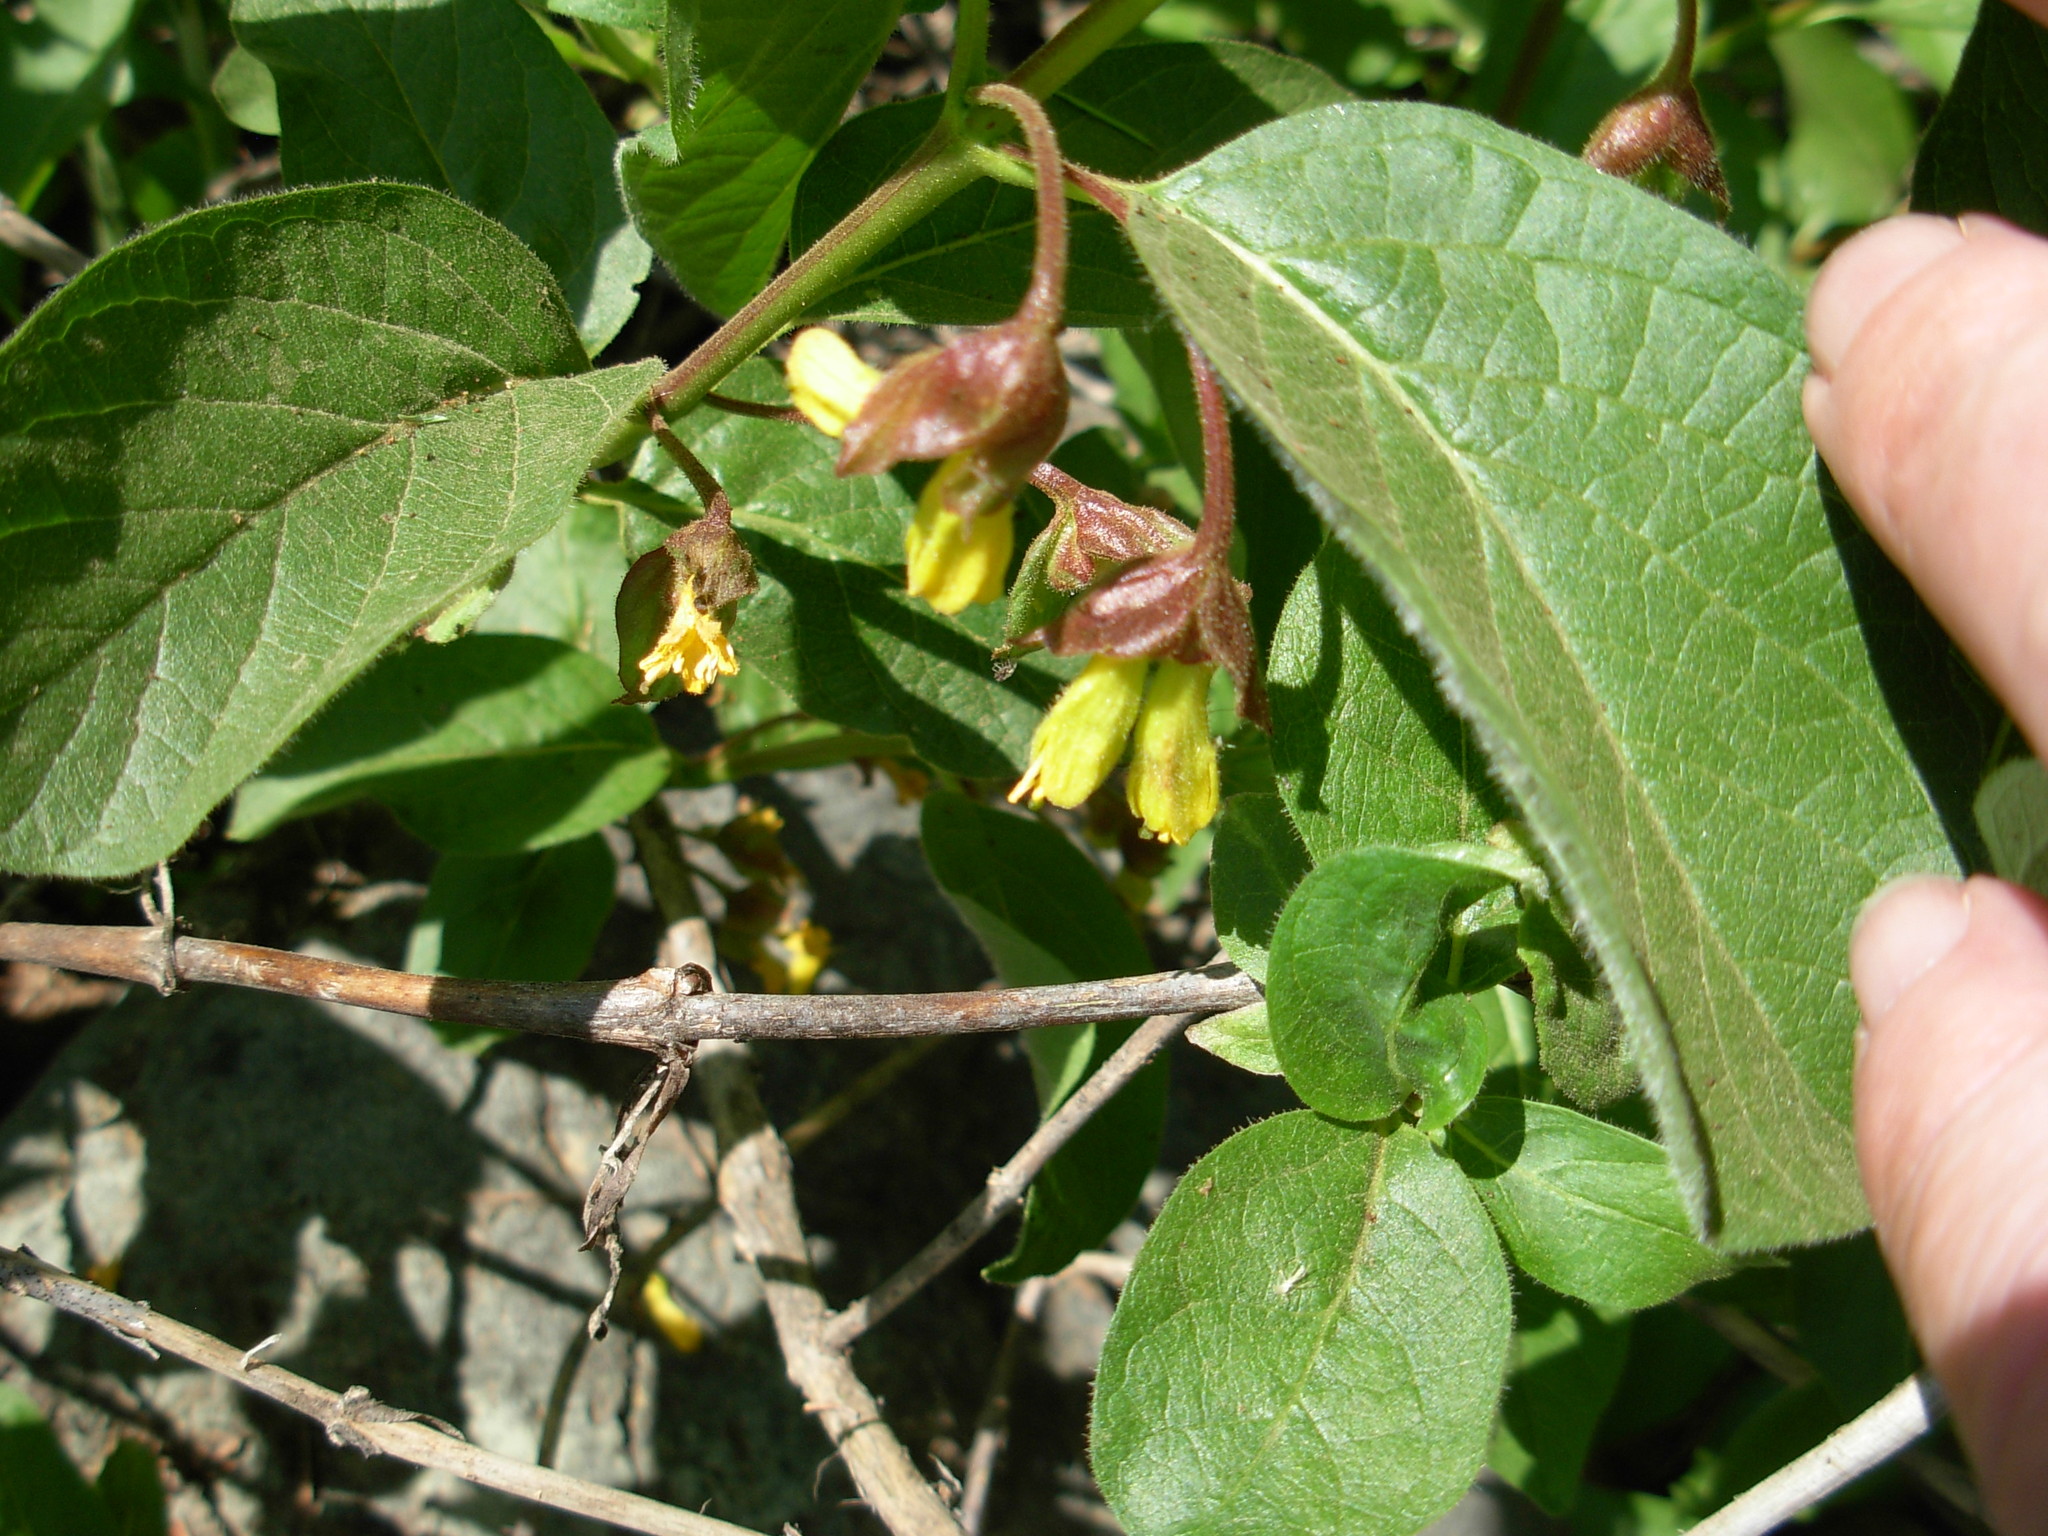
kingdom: Plantae
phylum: Tracheophyta
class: Magnoliopsida
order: Dipsacales
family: Caprifoliaceae
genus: Lonicera
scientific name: Lonicera involucrata
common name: Californian honeysuckle
